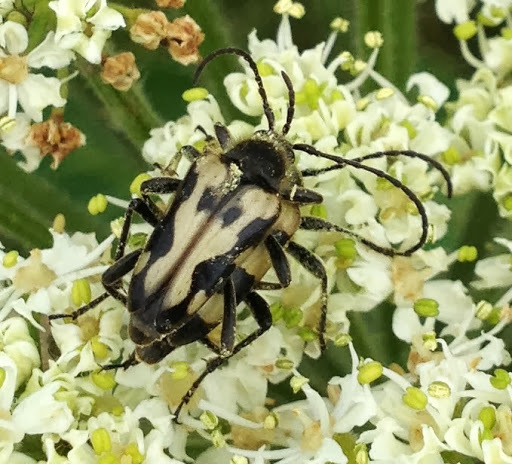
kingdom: Animalia
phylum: Arthropoda
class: Insecta
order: Coleoptera
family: Cerambycidae
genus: Judolia
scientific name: Judolia instabilis
